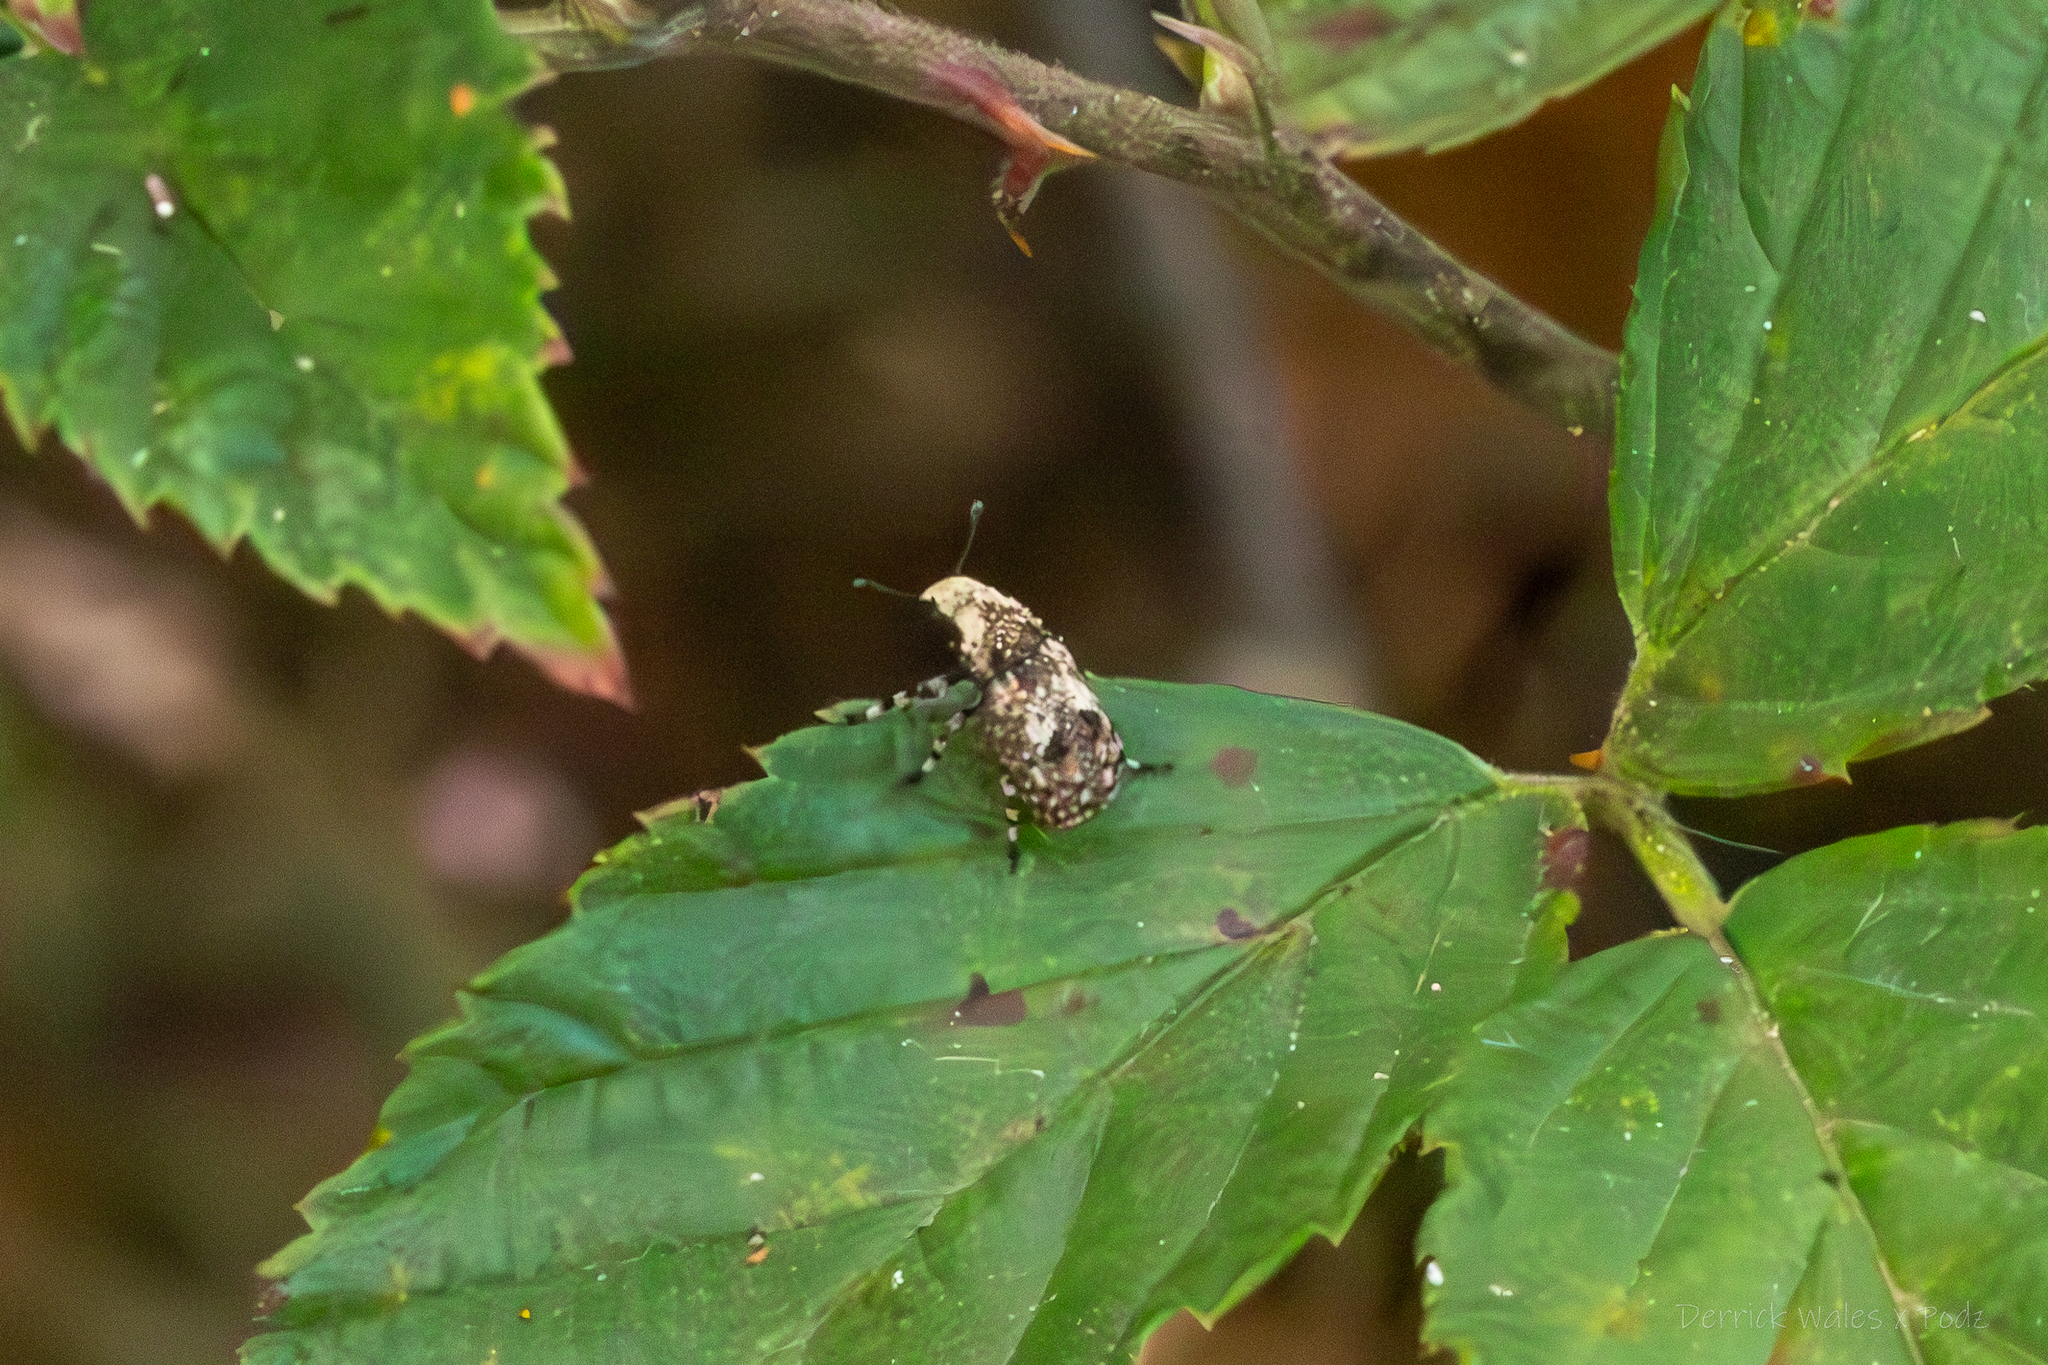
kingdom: Animalia
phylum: Arthropoda
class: Insecta
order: Coleoptera
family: Anthribidae
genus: Euparius
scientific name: Euparius marmoreus
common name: Marbled fungus weevil
